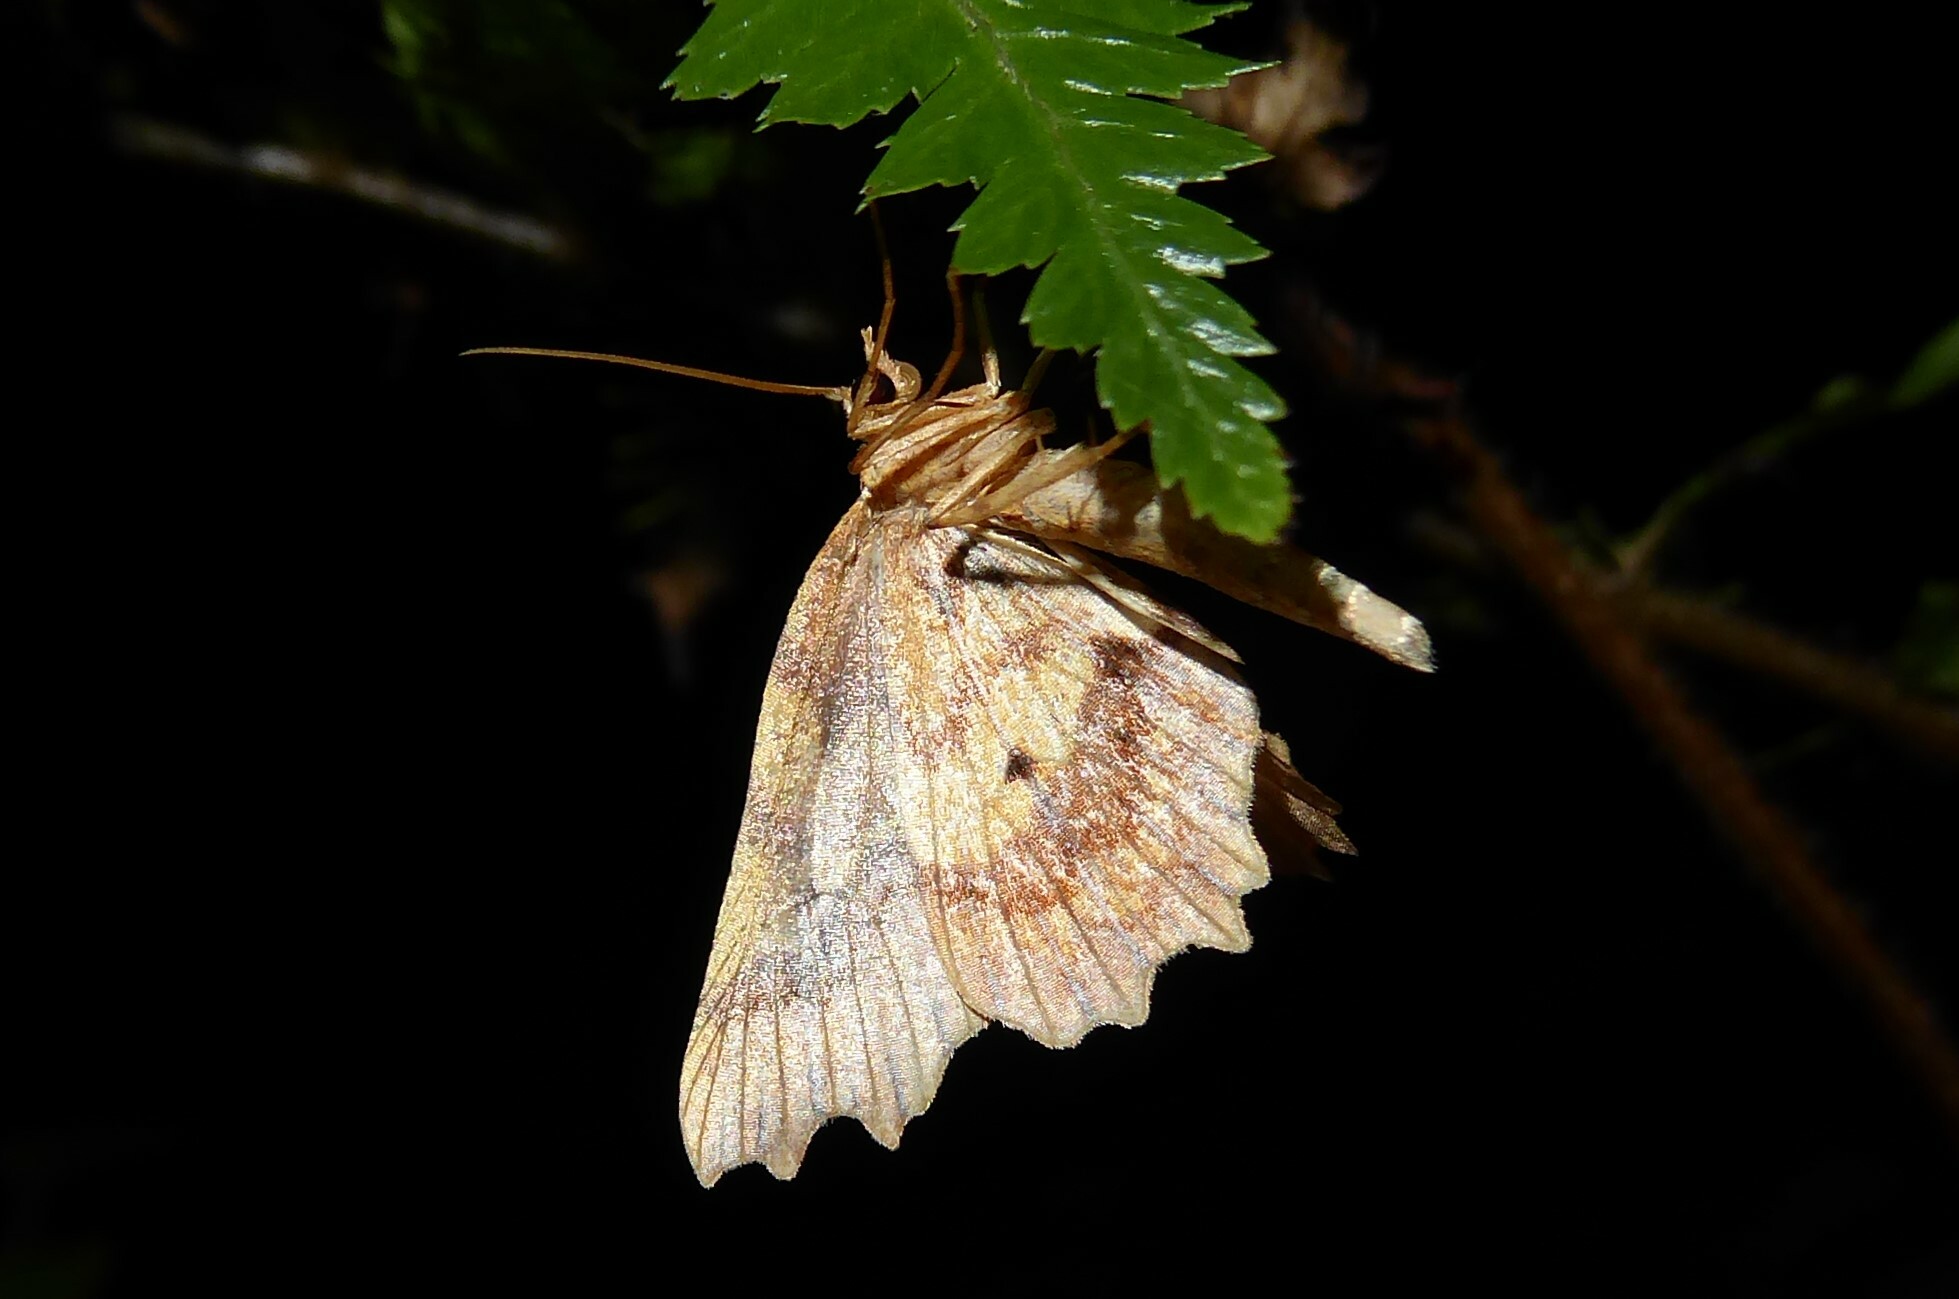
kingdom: Animalia
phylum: Arthropoda
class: Insecta
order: Lepidoptera
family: Geometridae
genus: Ischalis
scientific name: Ischalis fortinata
